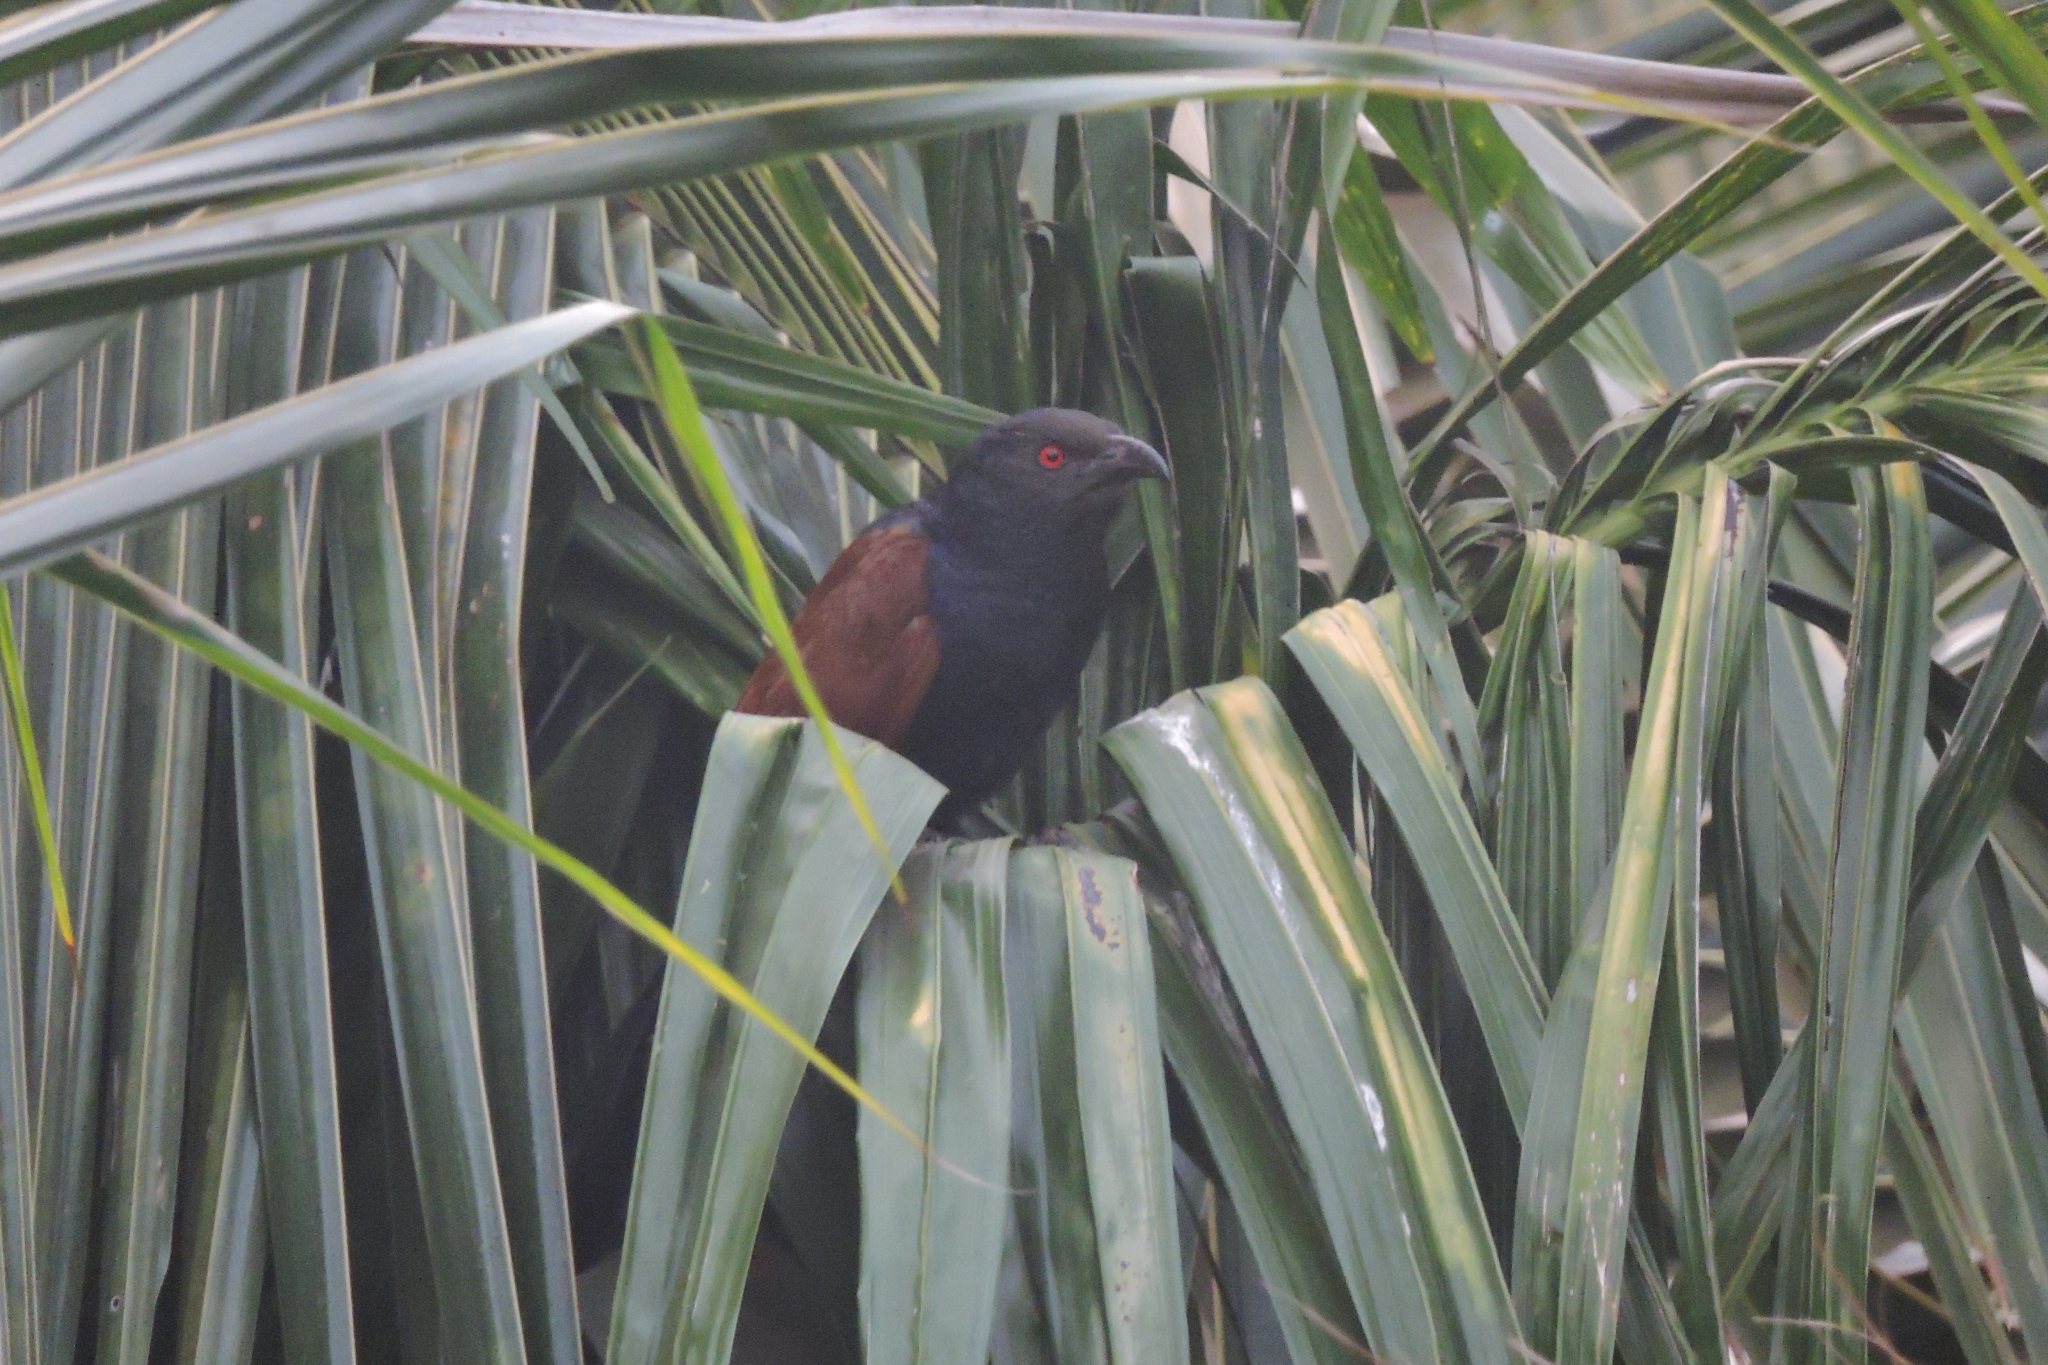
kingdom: Animalia
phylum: Chordata
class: Aves
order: Cuculiformes
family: Cuculidae
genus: Centropus
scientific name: Centropus sinensis
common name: Greater coucal
